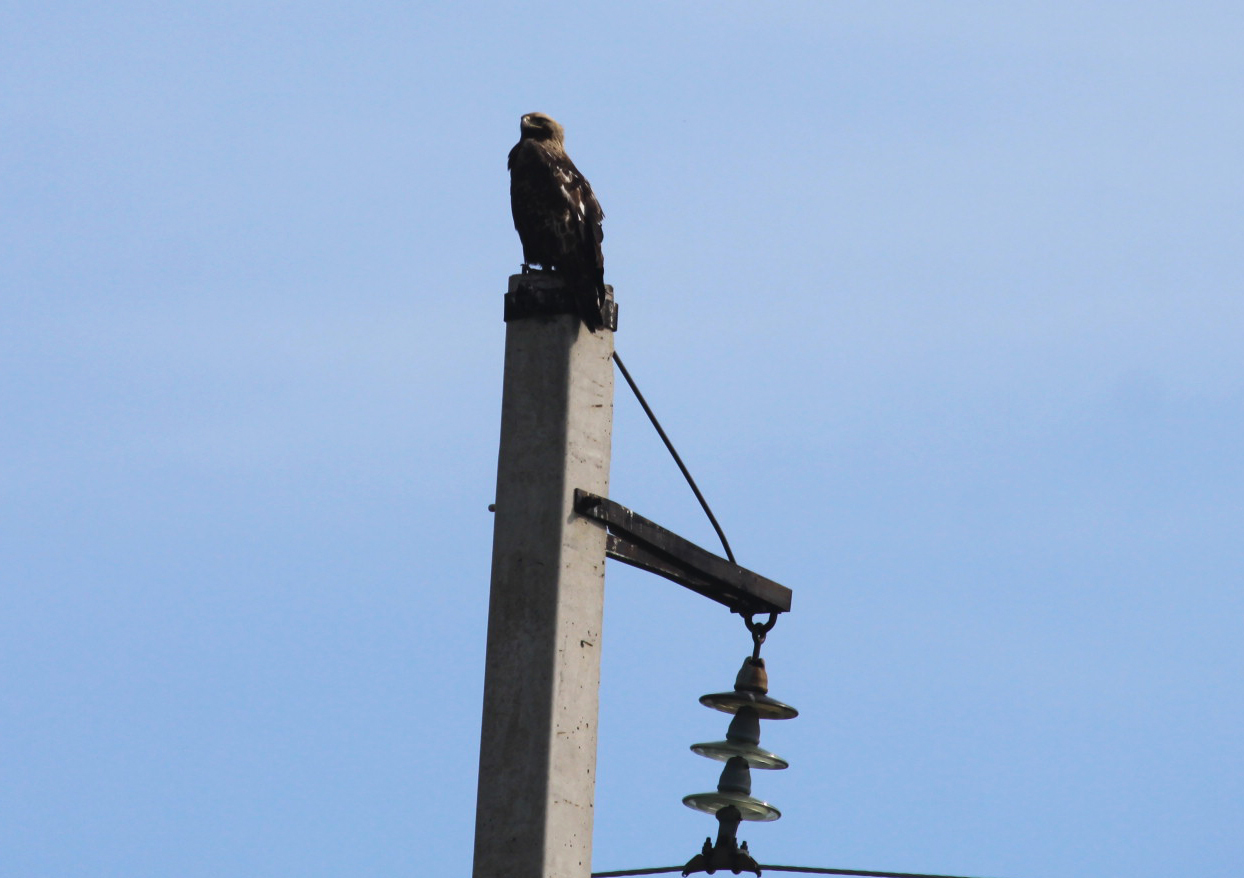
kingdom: Animalia
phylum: Chordata
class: Aves
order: Accipitriformes
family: Accipitridae
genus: Aquila
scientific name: Aquila heliaca
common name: Eastern imperial eagle
